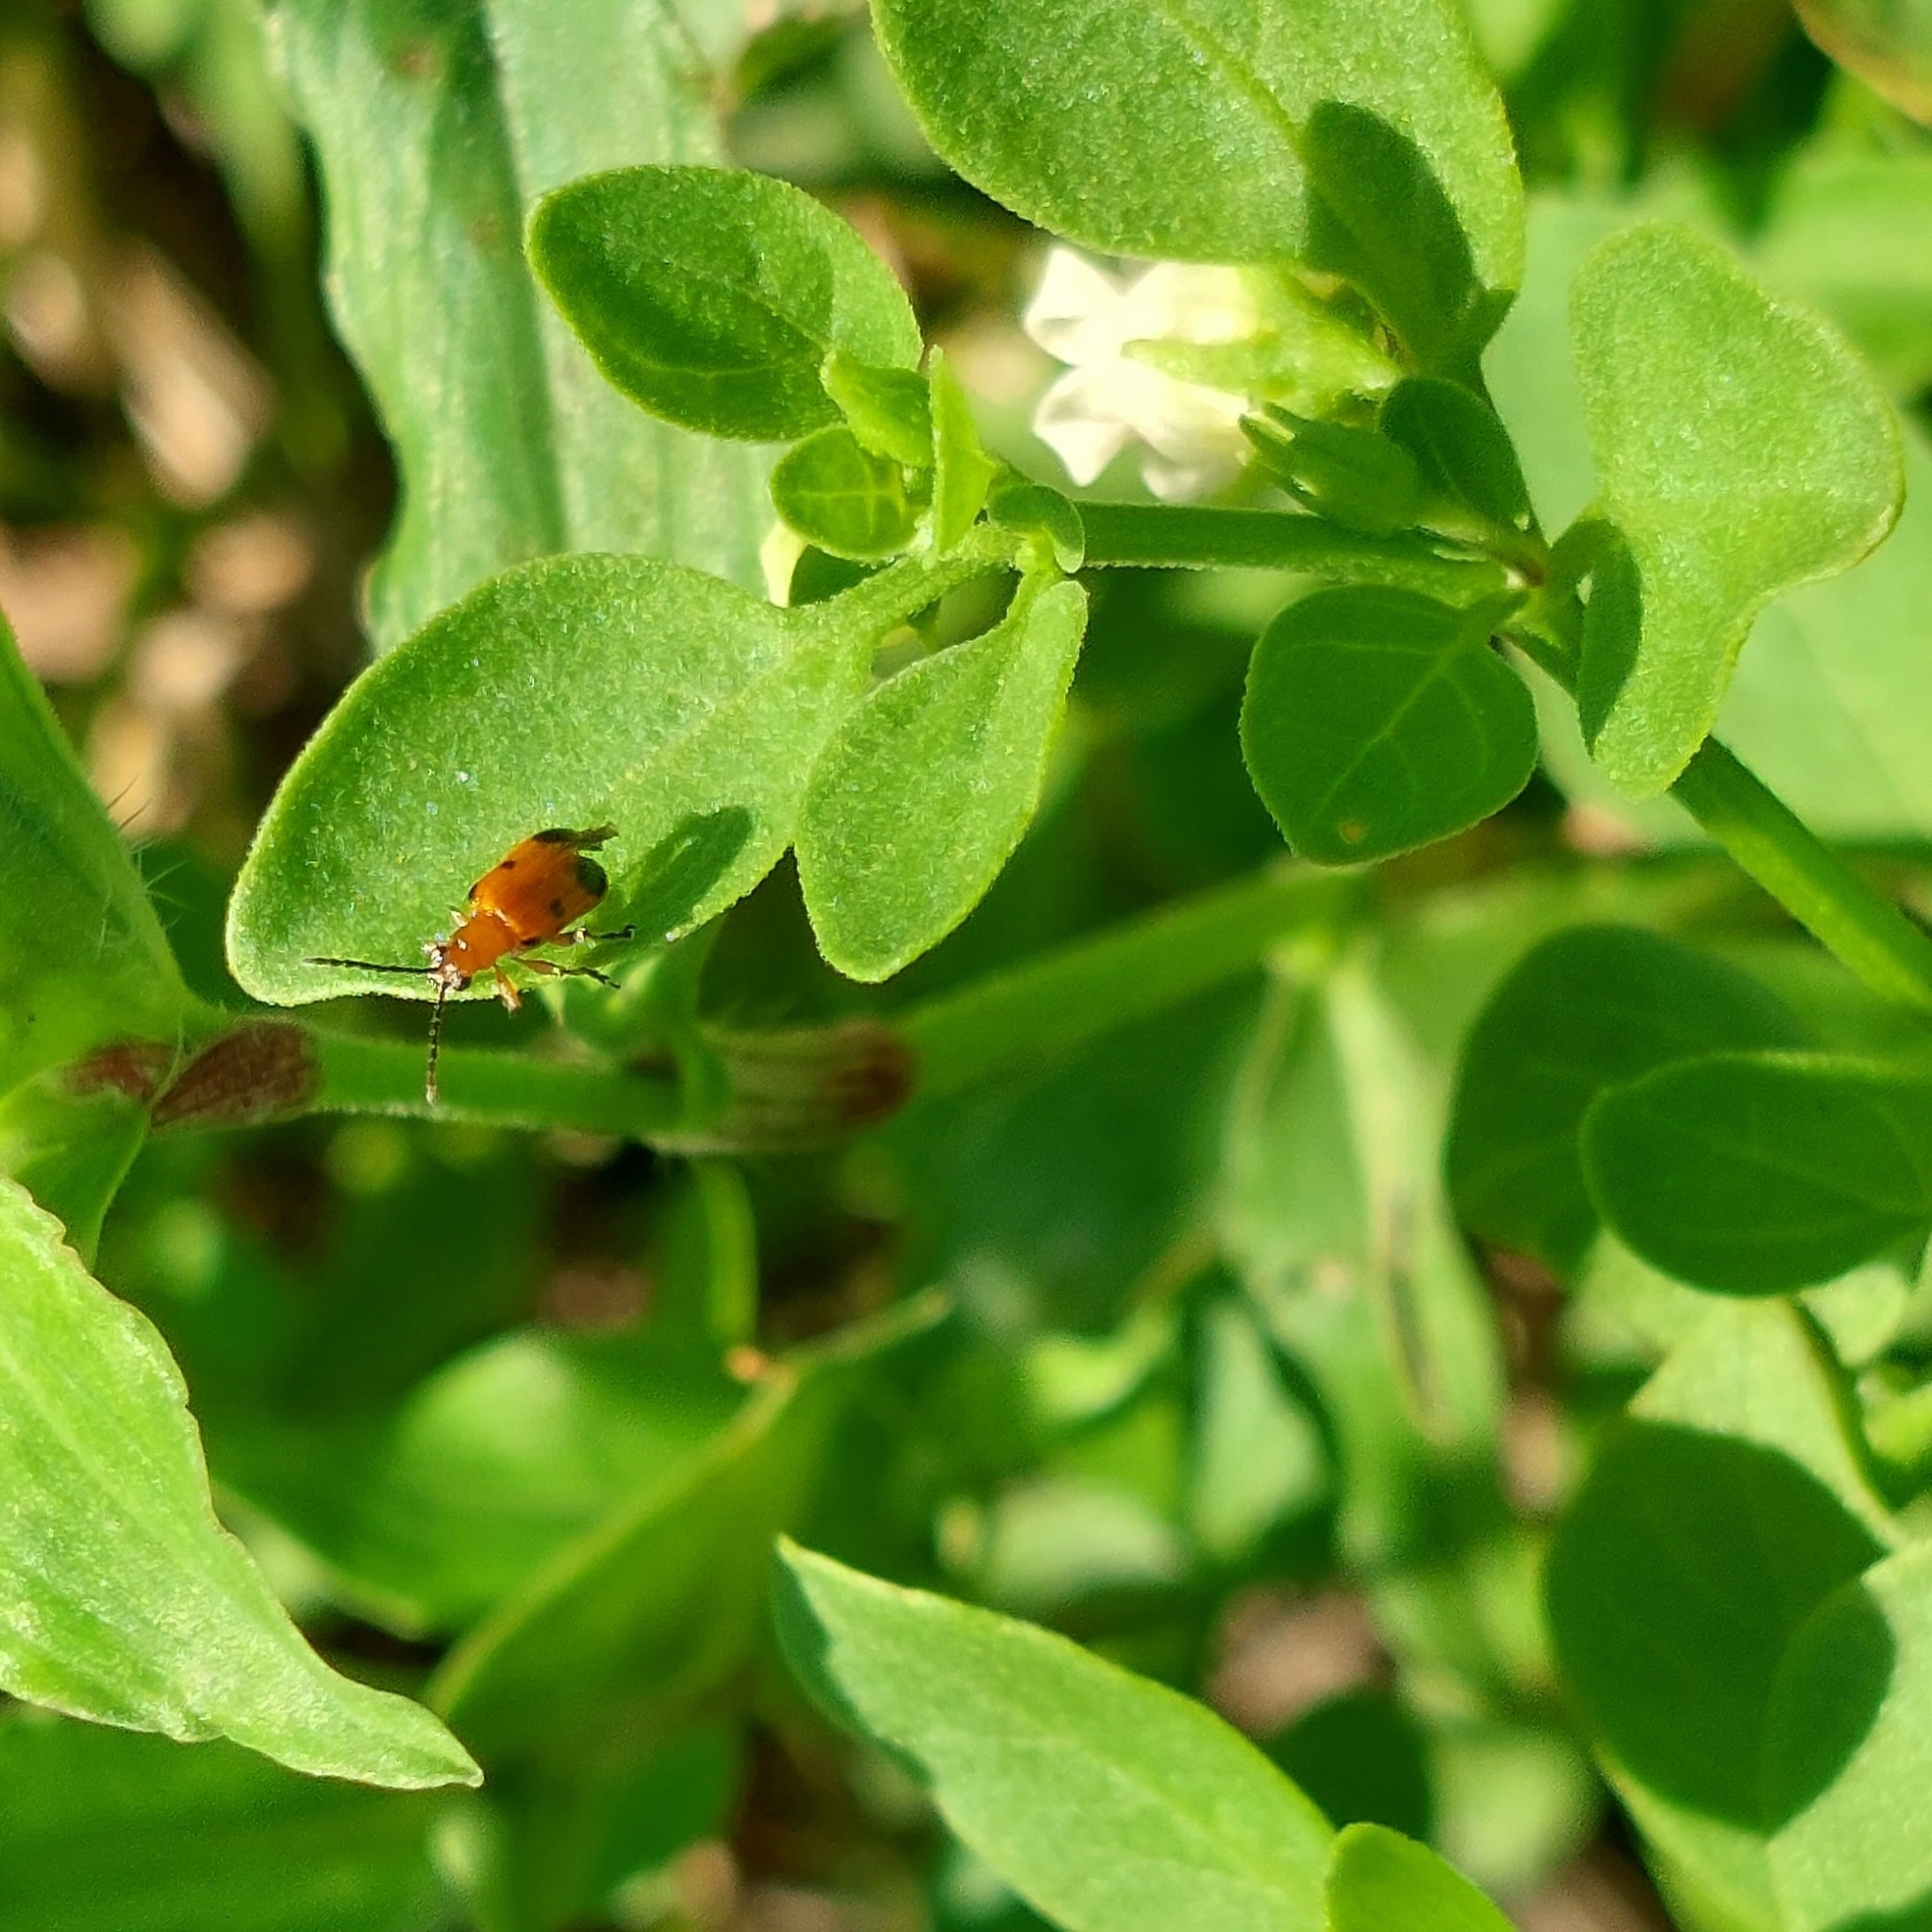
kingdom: Animalia
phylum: Arthropoda
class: Insecta
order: Coleoptera
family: Chrysomelidae
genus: Neolema
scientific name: Neolema dorsalis
